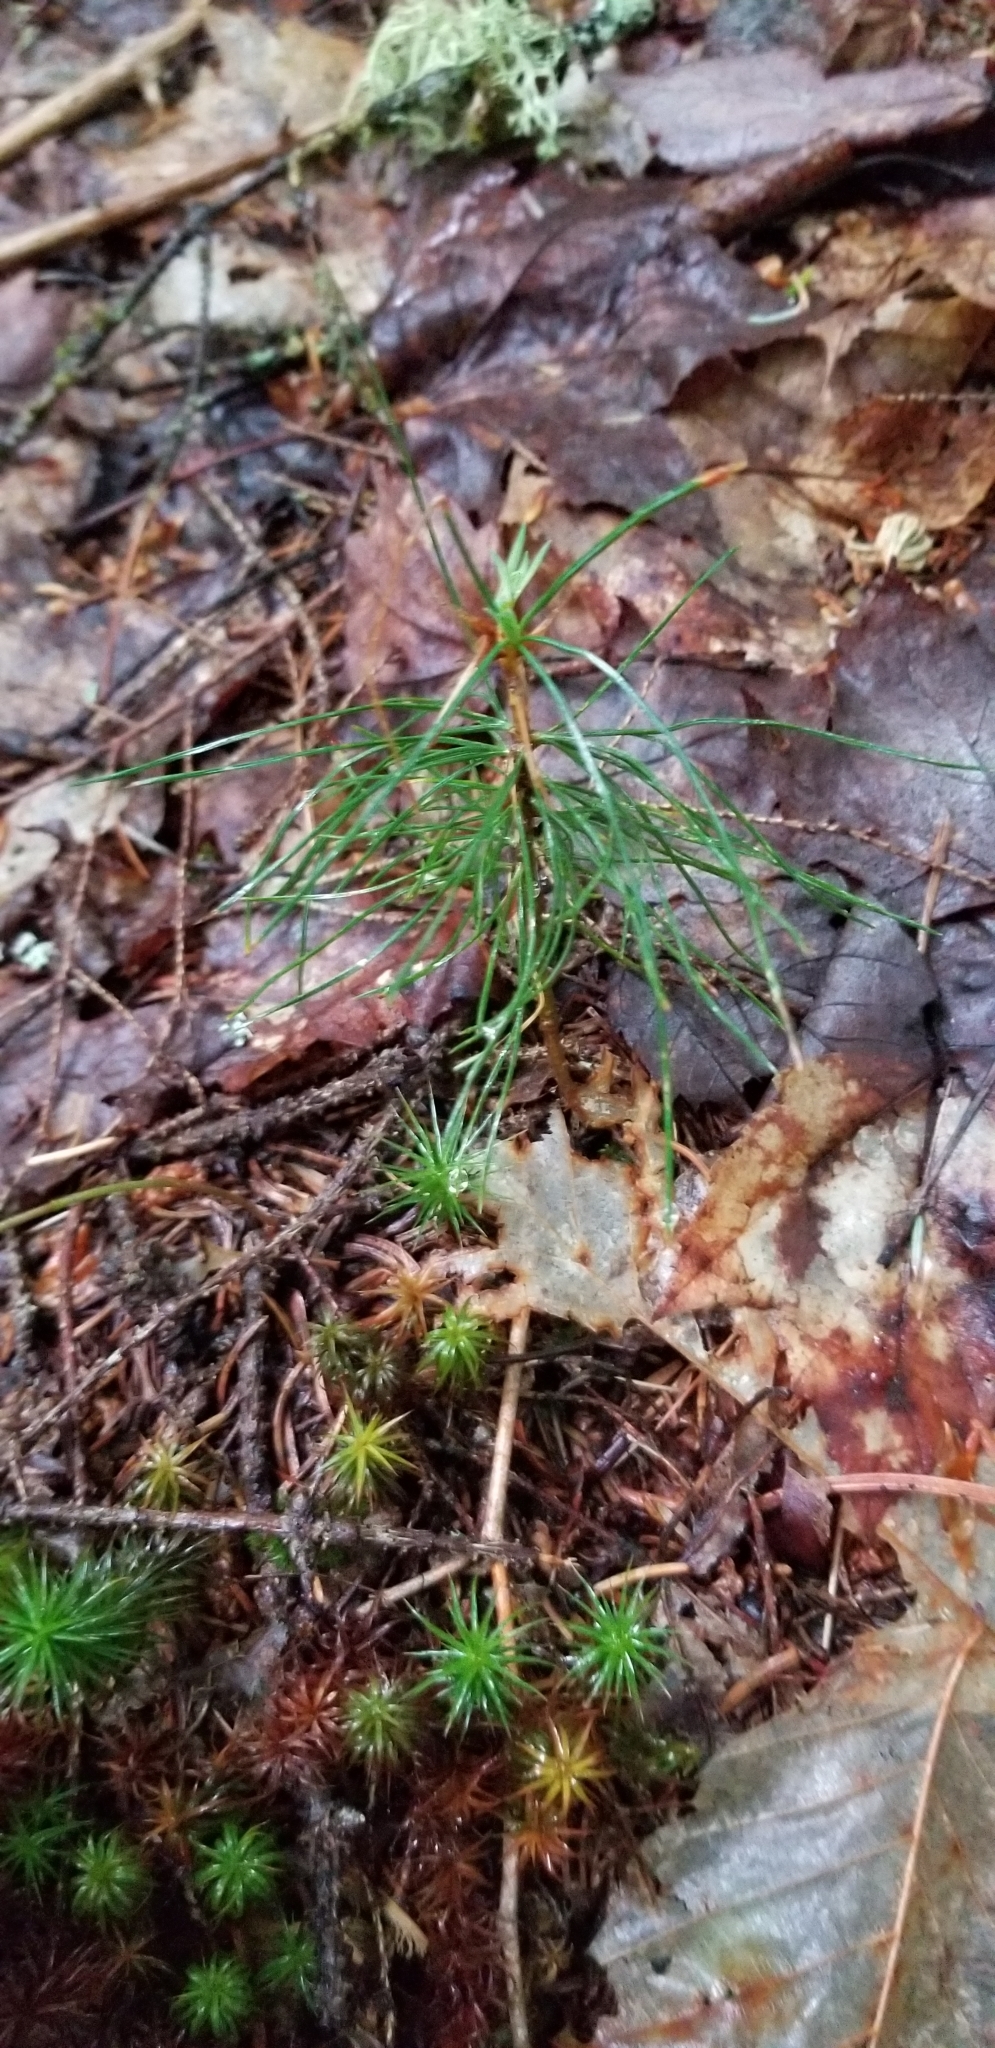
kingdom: Plantae
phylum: Tracheophyta
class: Pinopsida
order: Pinales
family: Pinaceae
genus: Pinus
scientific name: Pinus strobus
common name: Weymouth pine
